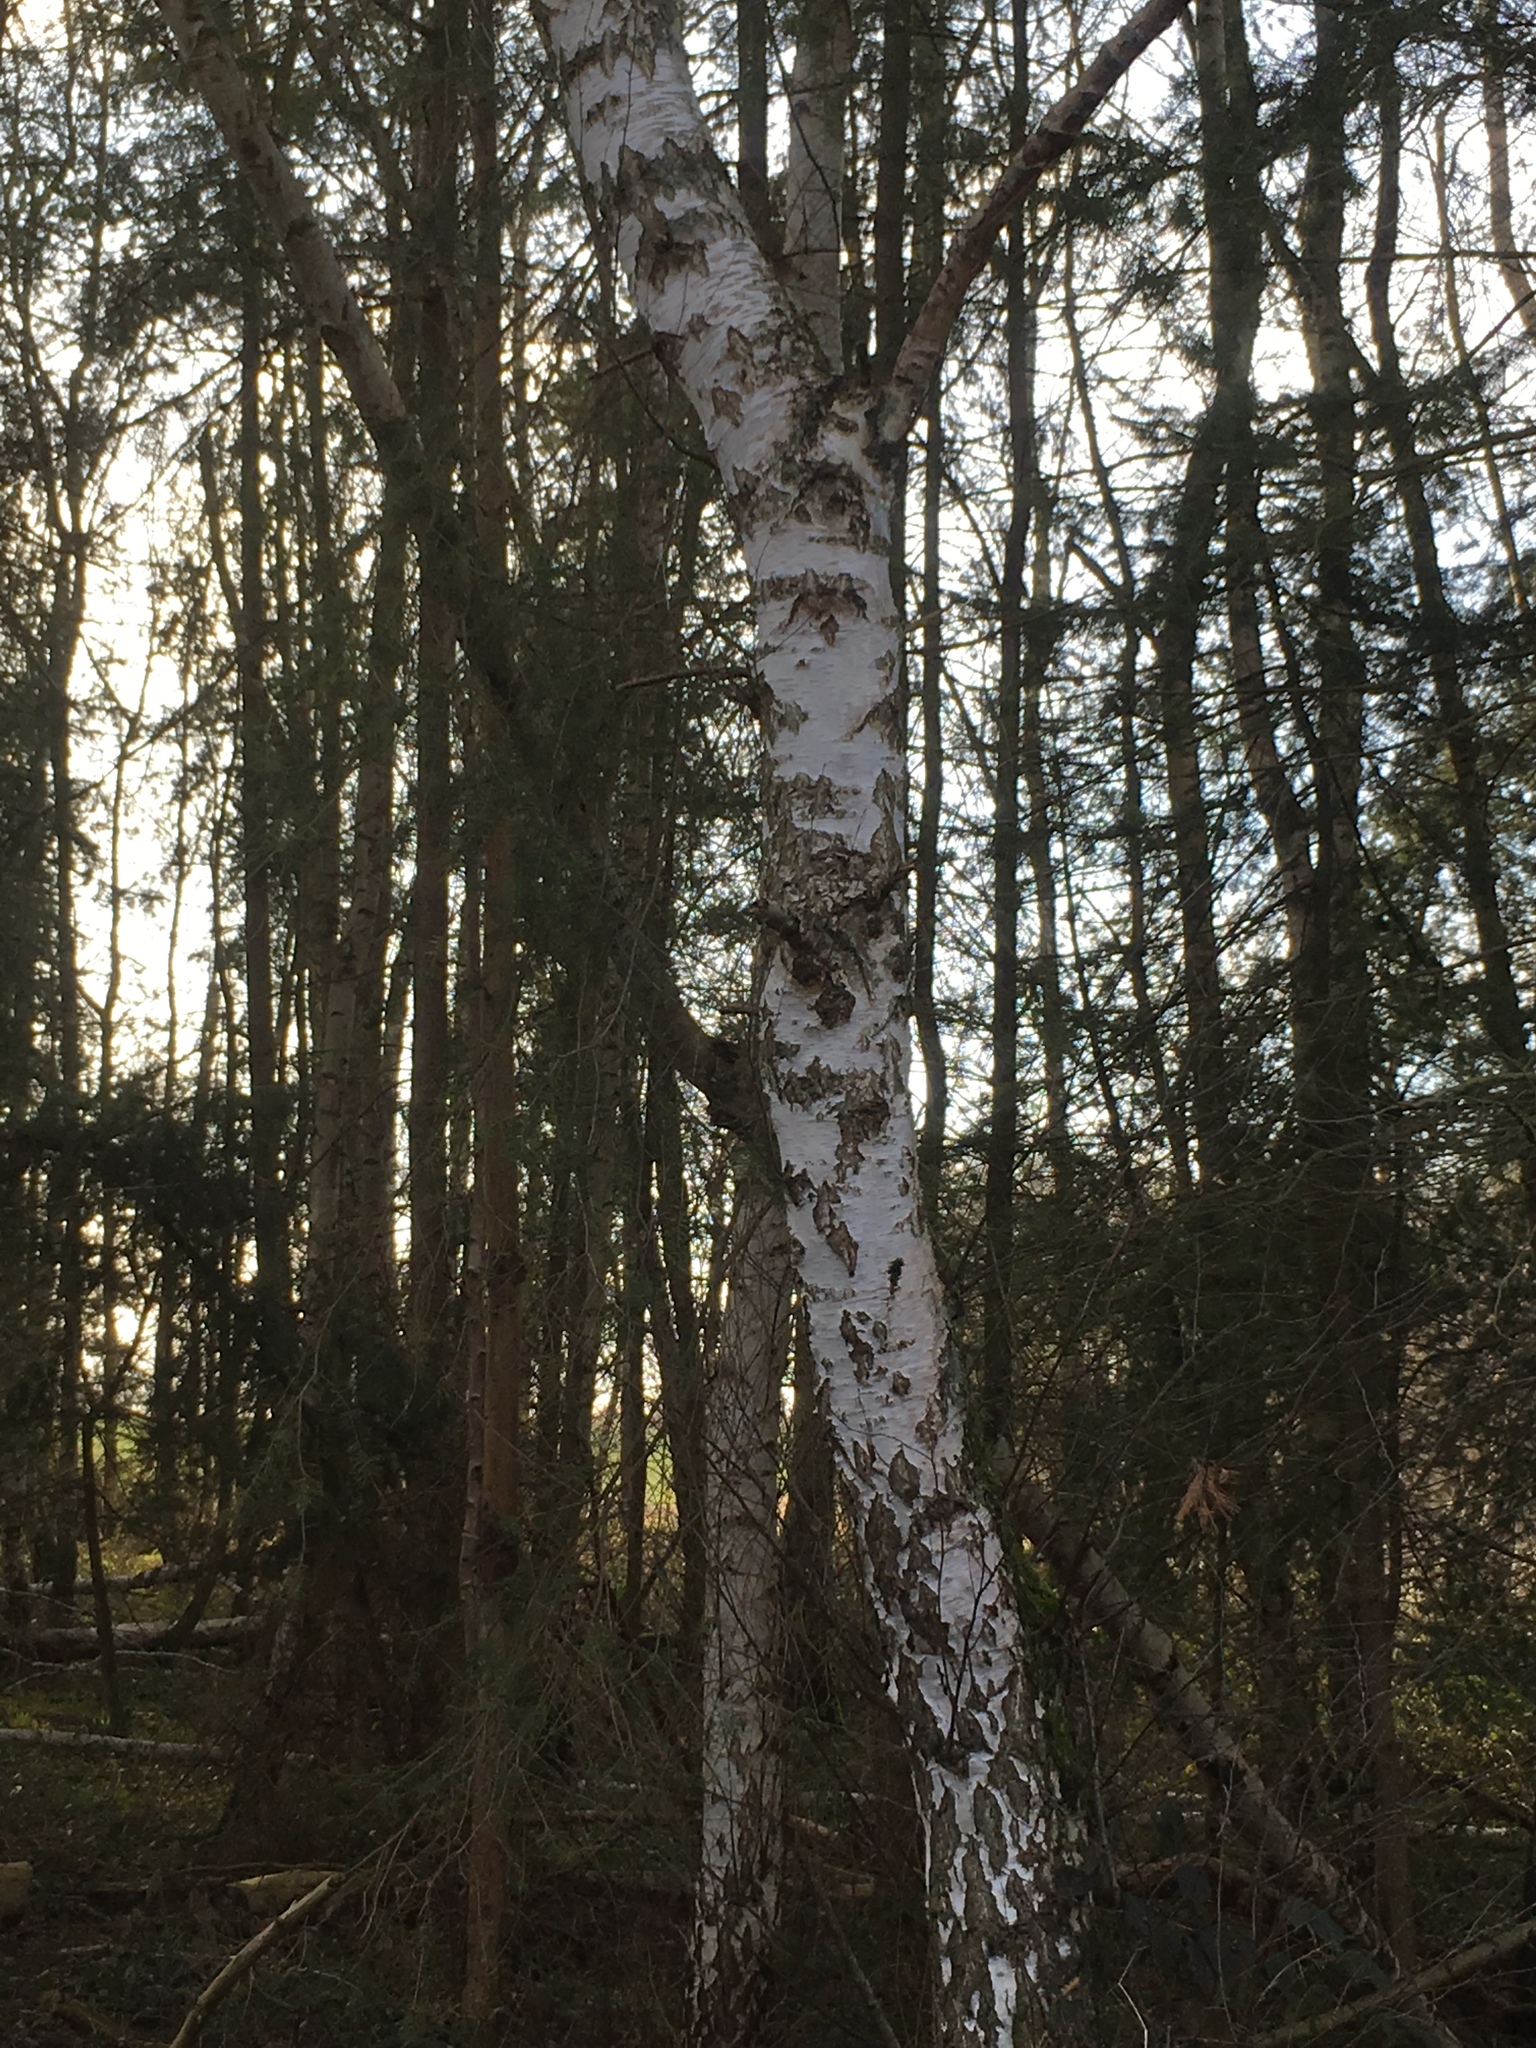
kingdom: Plantae
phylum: Tracheophyta
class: Magnoliopsida
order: Fagales
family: Betulaceae
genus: Betula
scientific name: Betula pendula
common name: Silver birch
